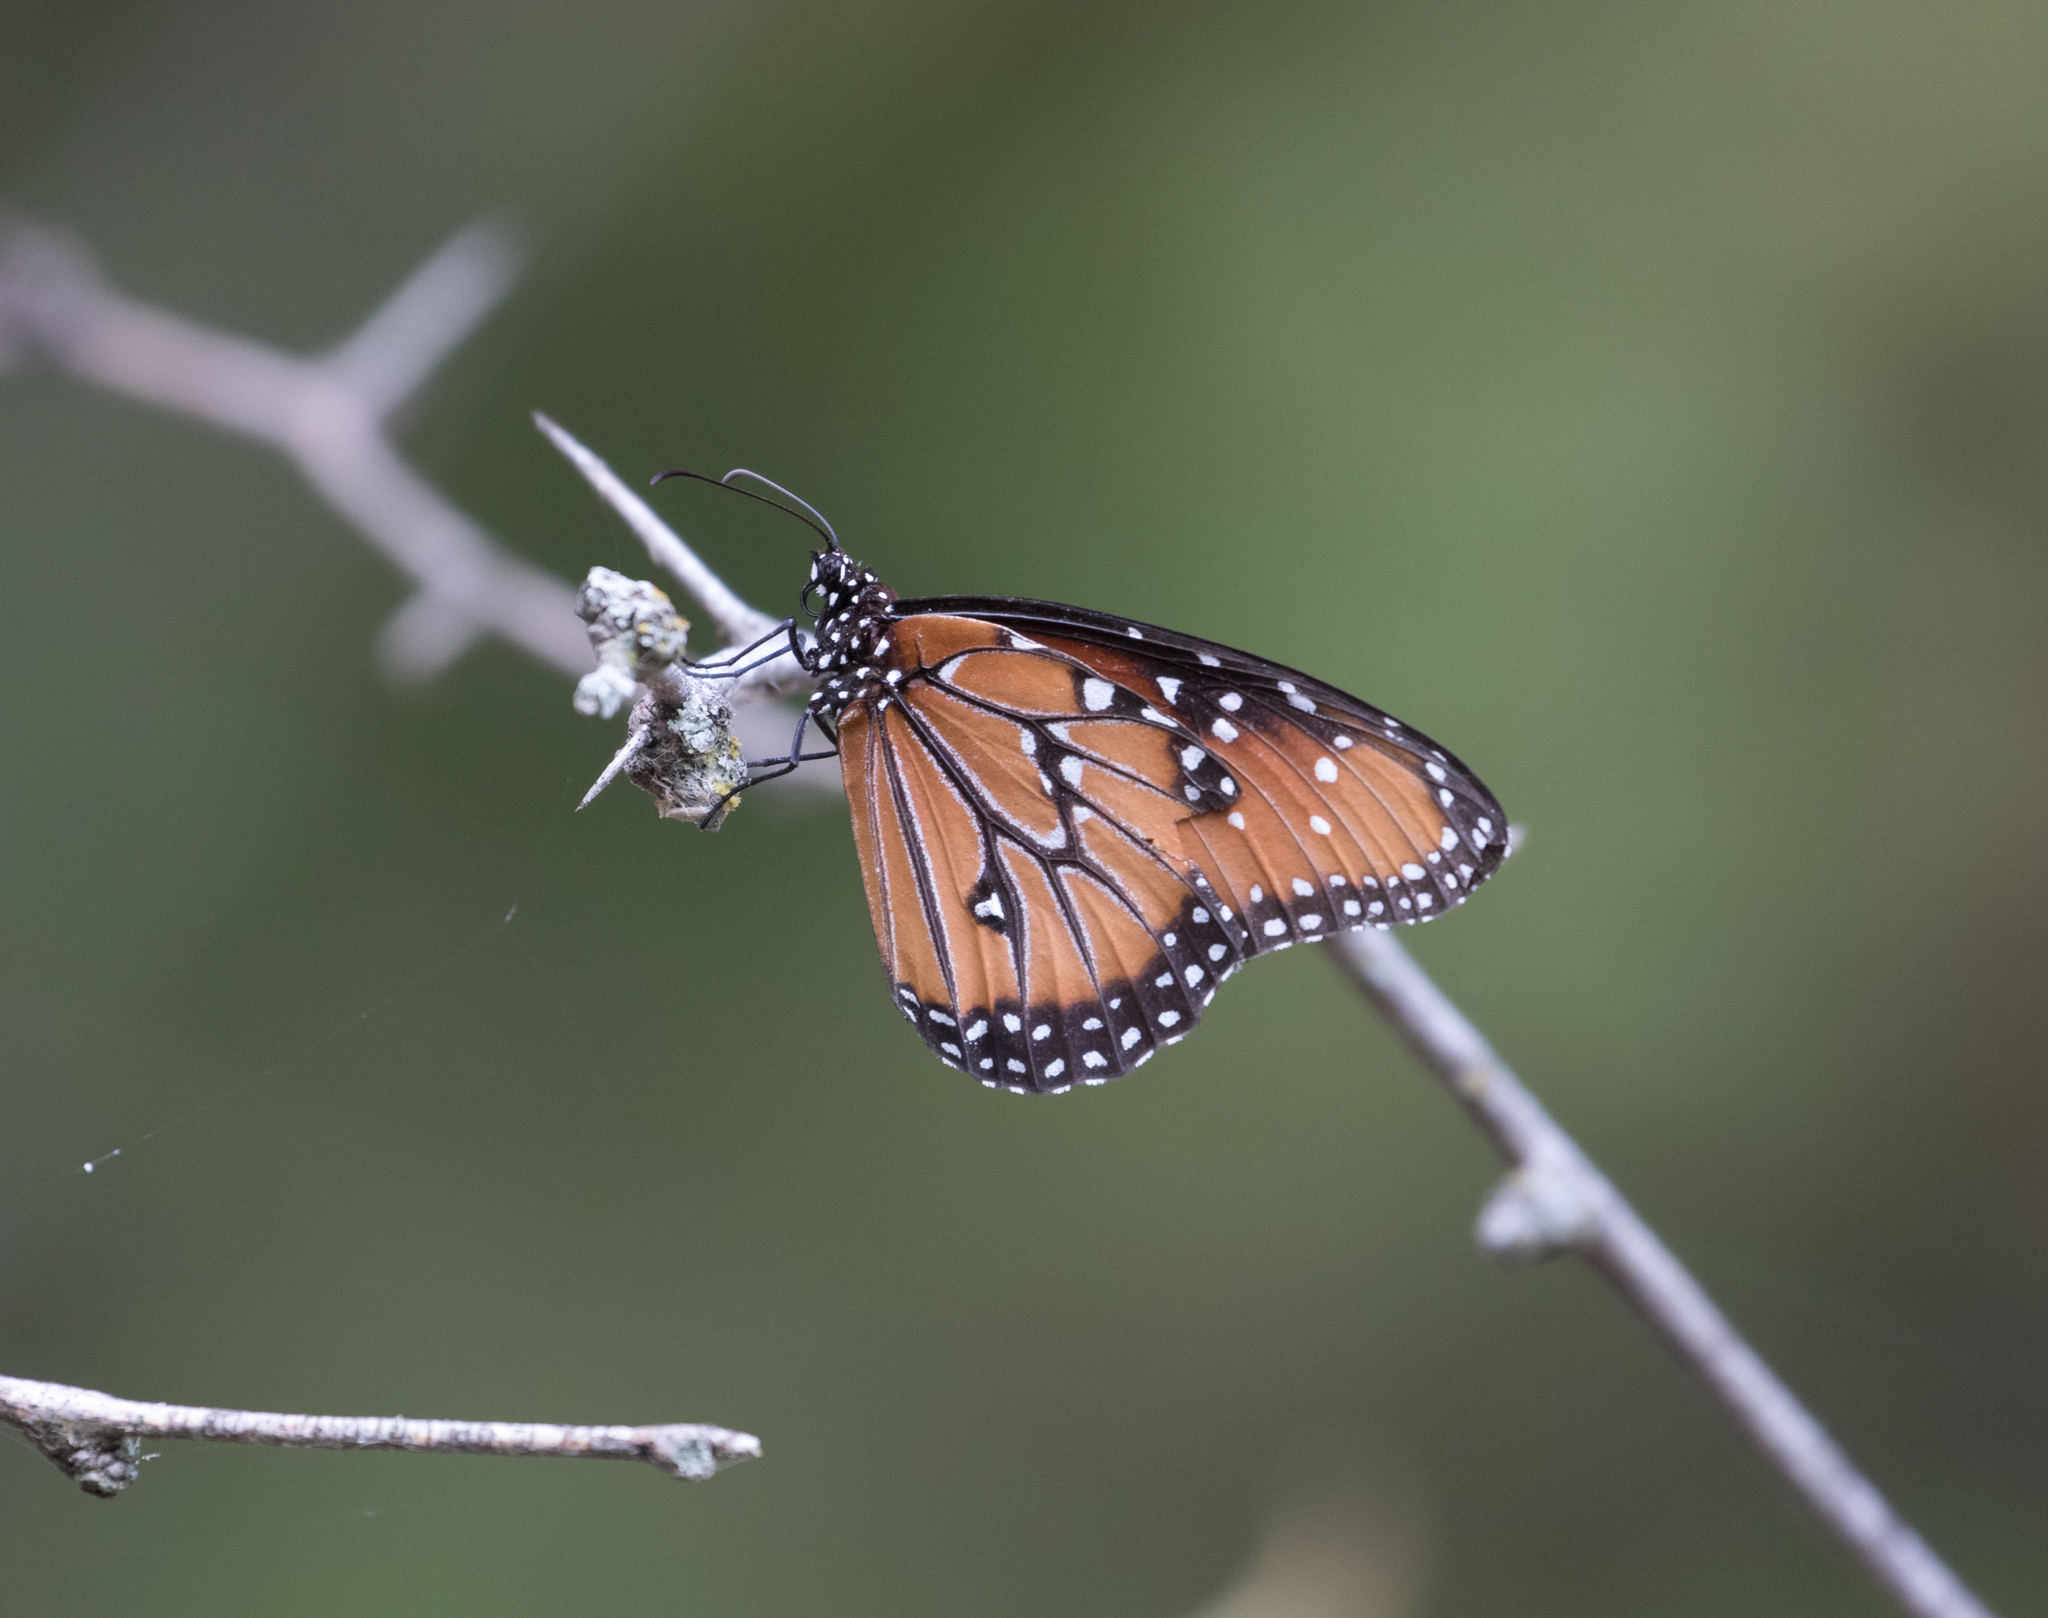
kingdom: Animalia
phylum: Arthropoda
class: Insecta
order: Lepidoptera
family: Nymphalidae
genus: Danaus
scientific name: Danaus gilippus
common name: Queen
